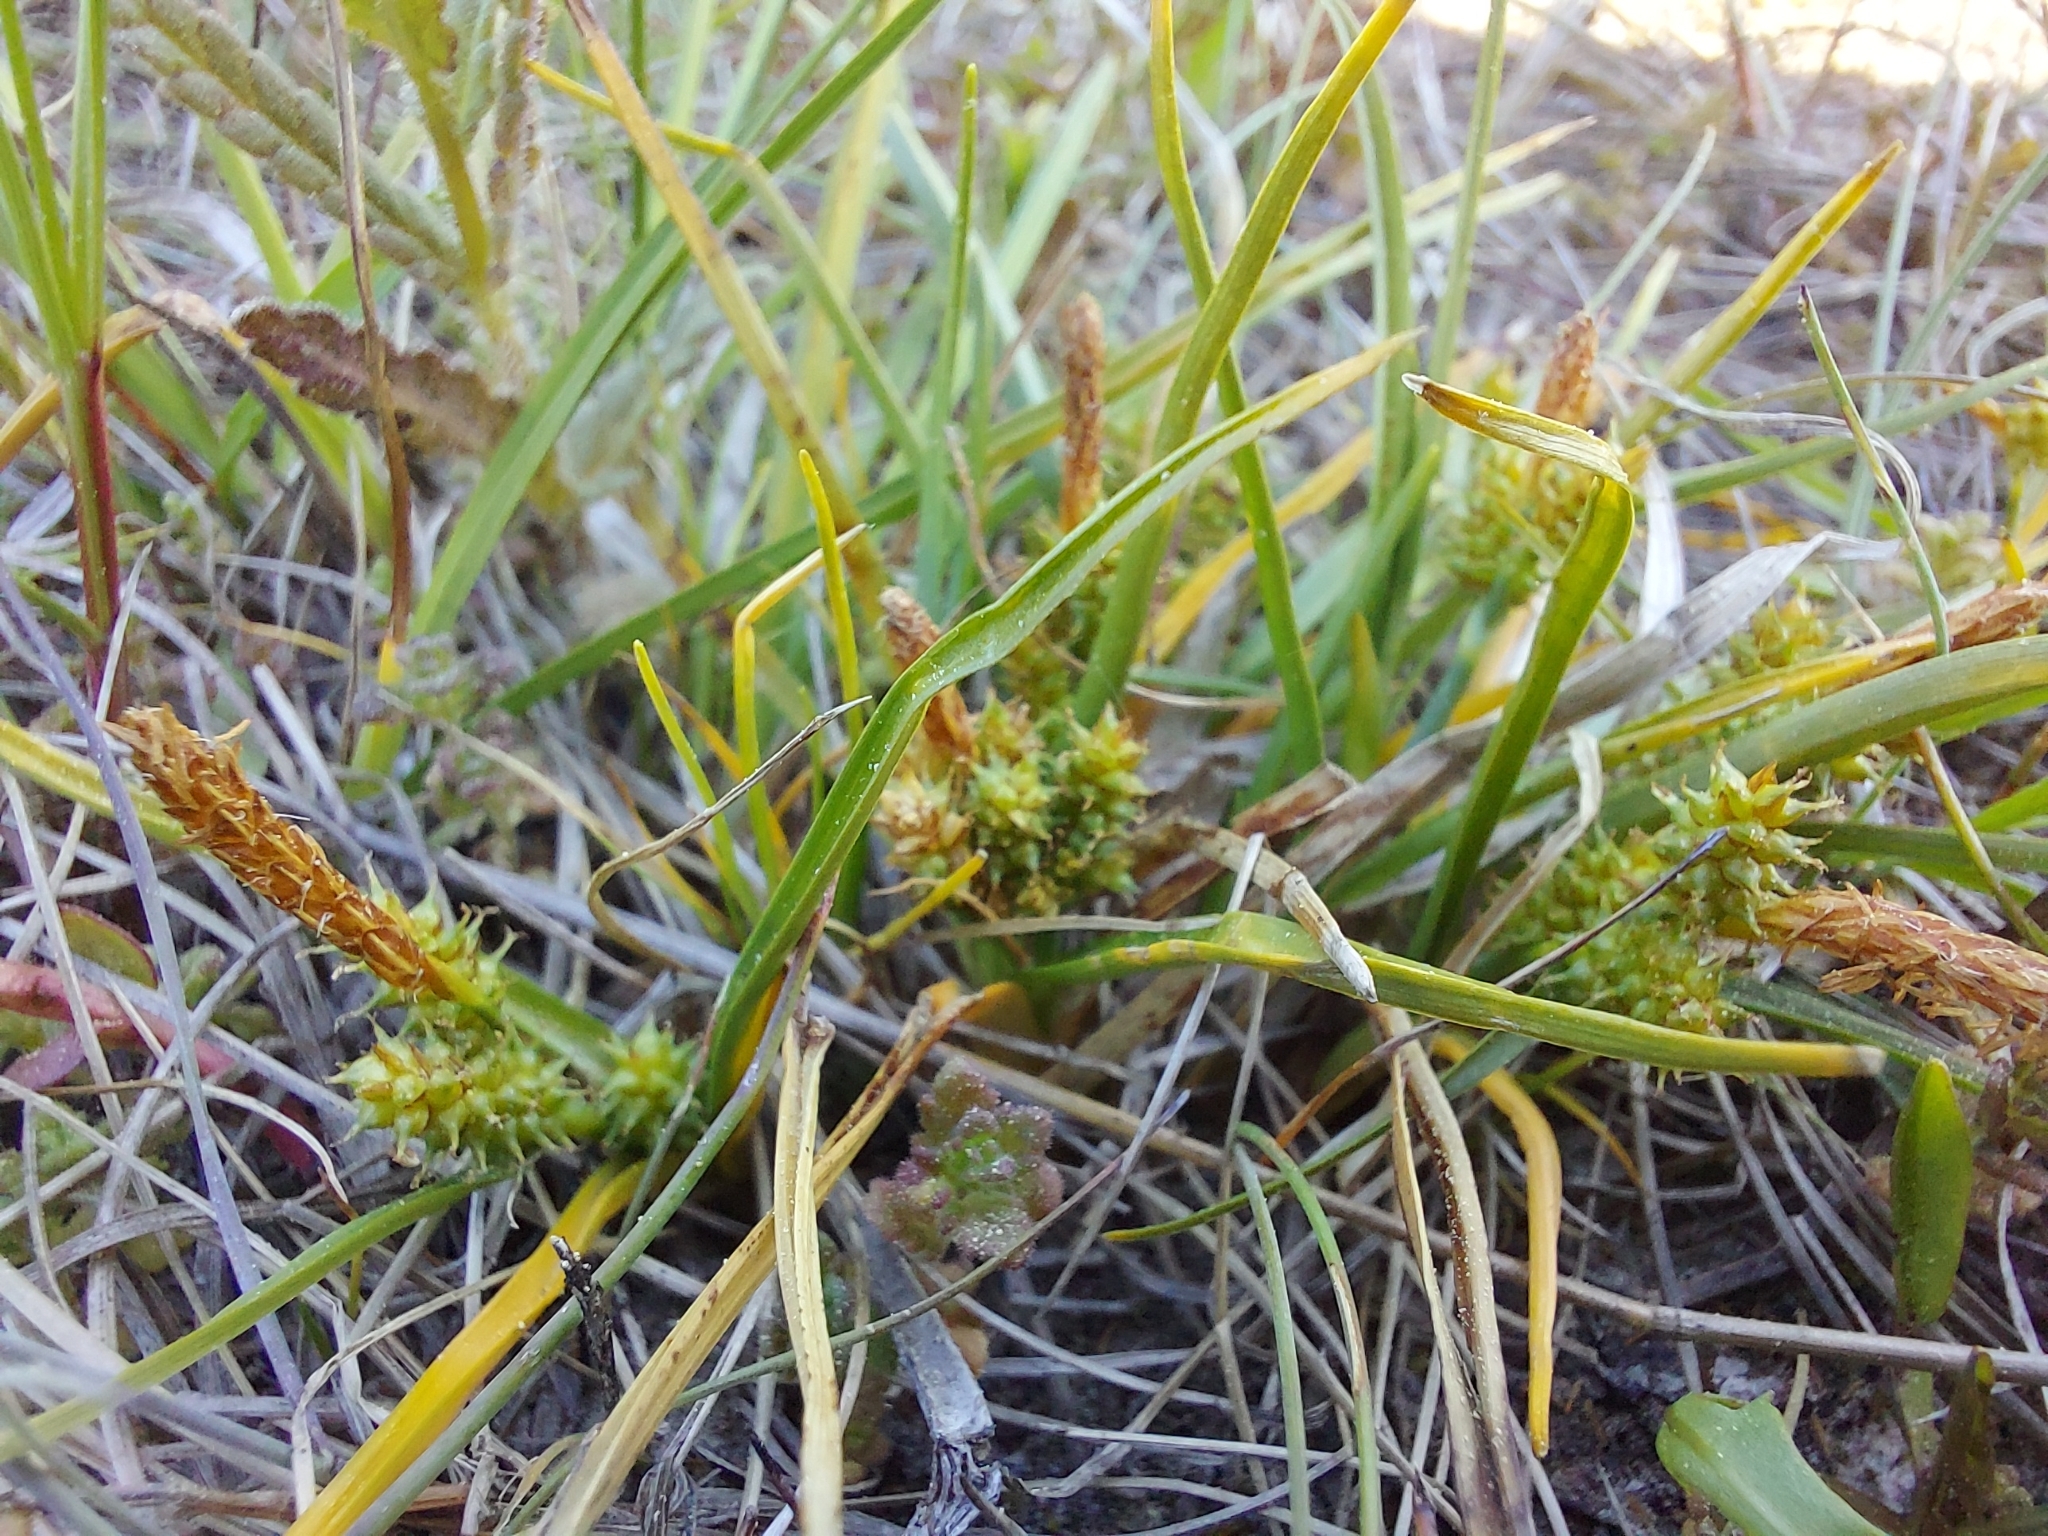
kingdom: Plantae
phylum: Tracheophyta
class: Liliopsida
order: Poales
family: Cyperaceae
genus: Carex
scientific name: Carex oederi
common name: Common & small-fruited yellow-sedge
